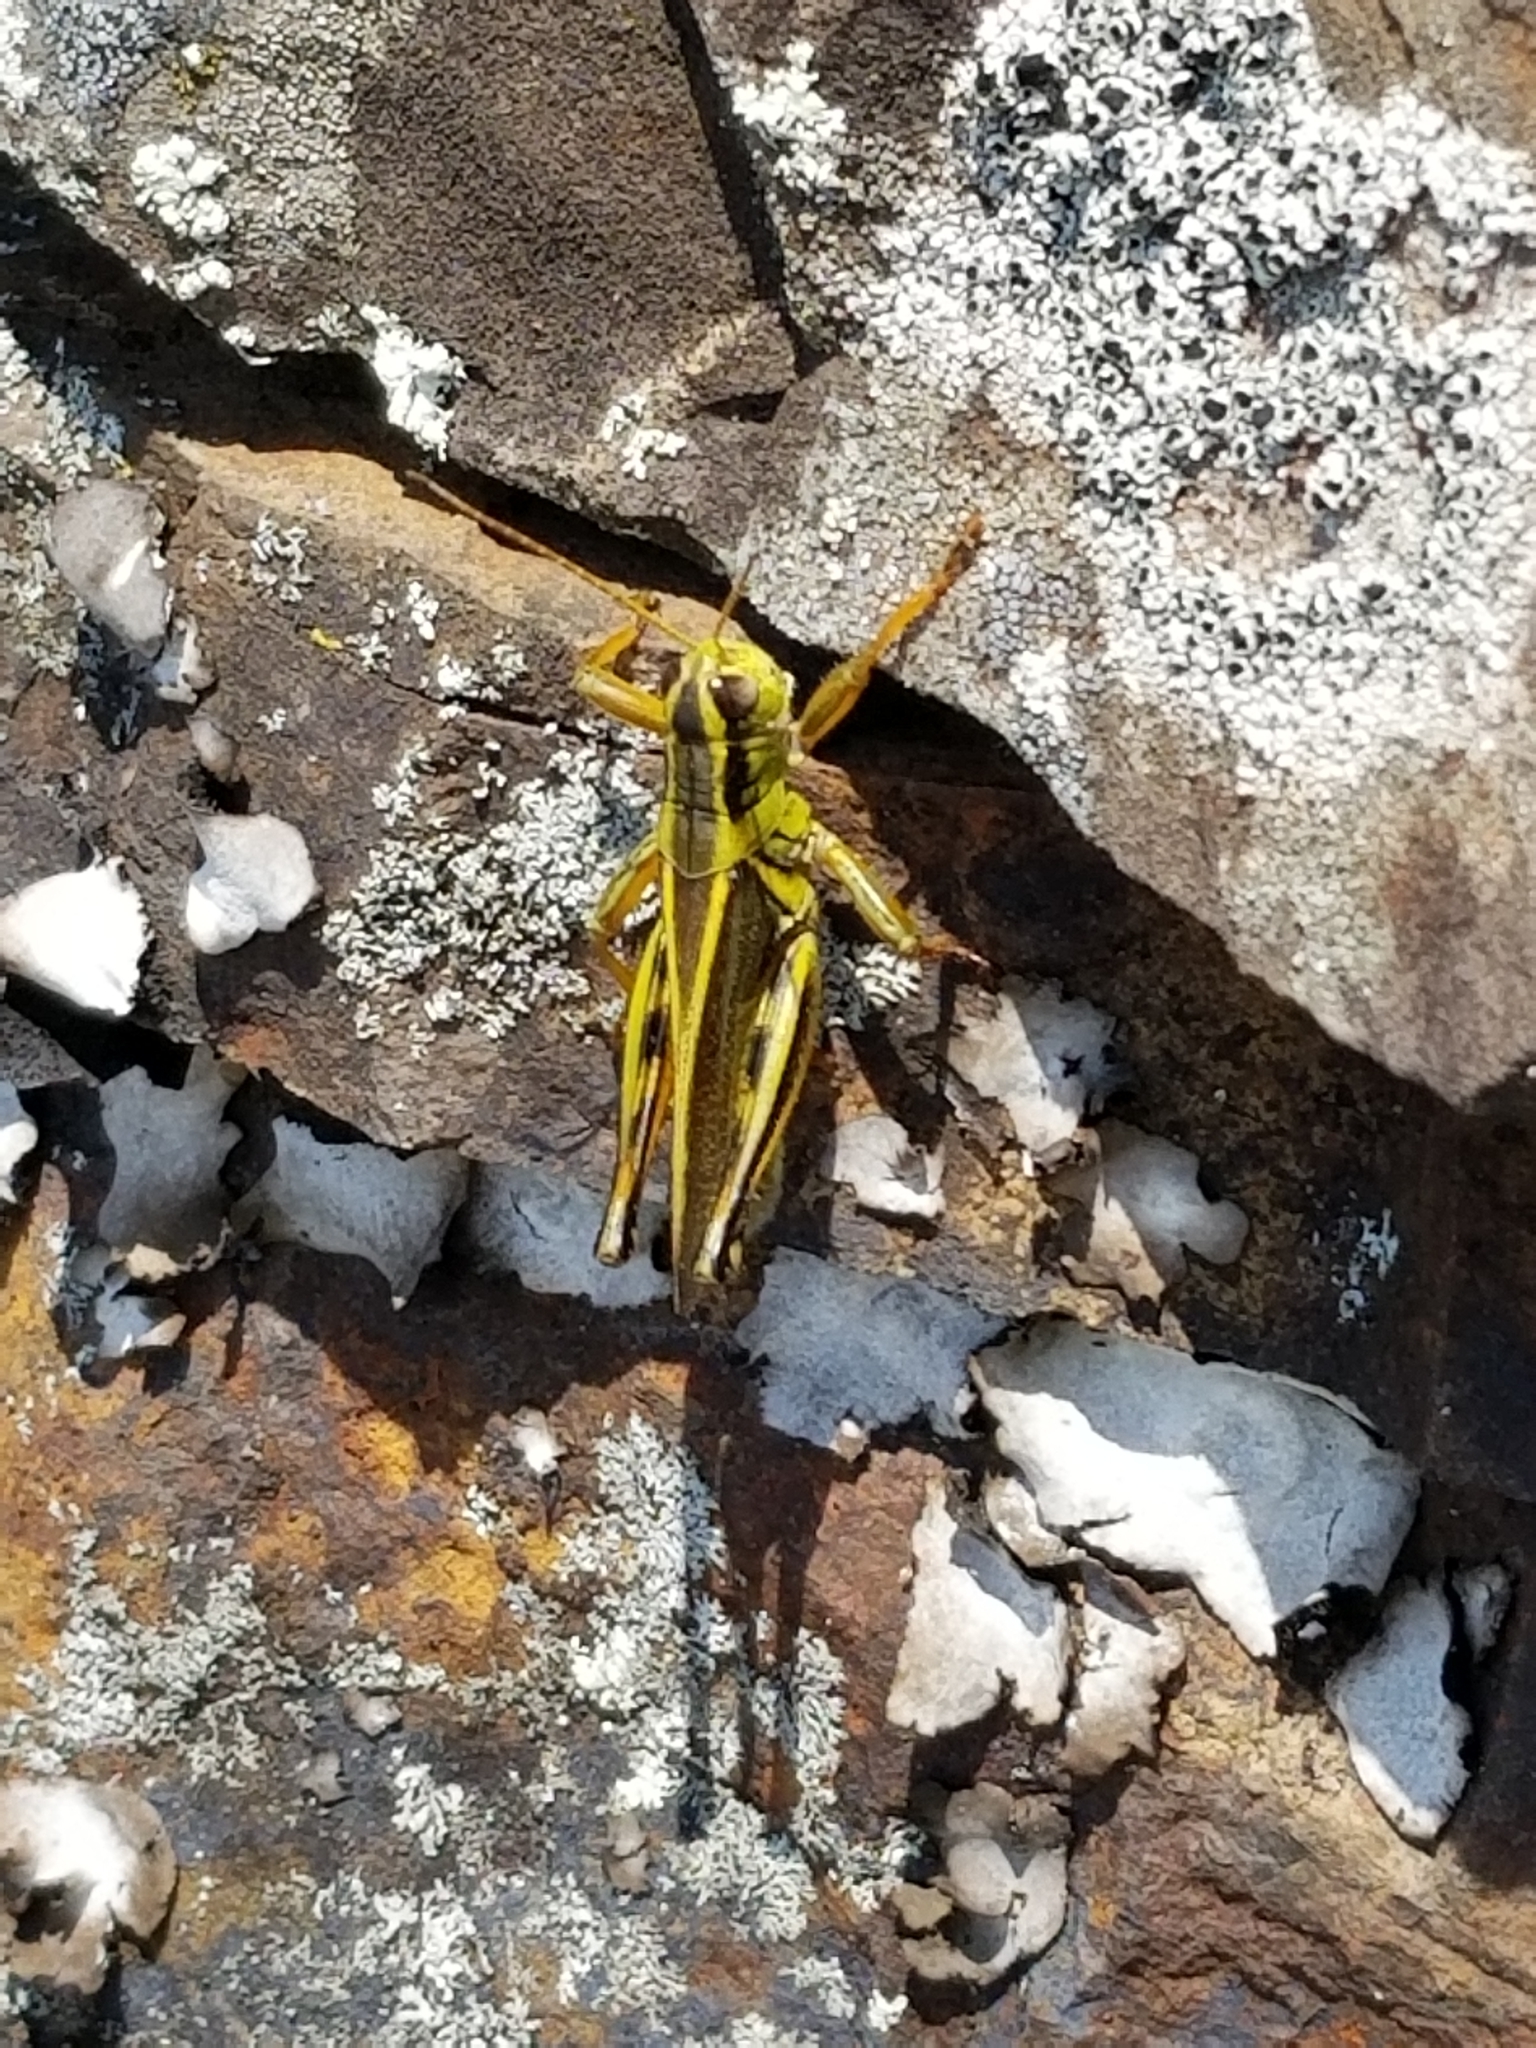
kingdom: Animalia
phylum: Arthropoda
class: Insecta
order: Orthoptera
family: Acrididae
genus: Melanoplus
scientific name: Melanoplus bivittatus
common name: Two-striped grasshopper
